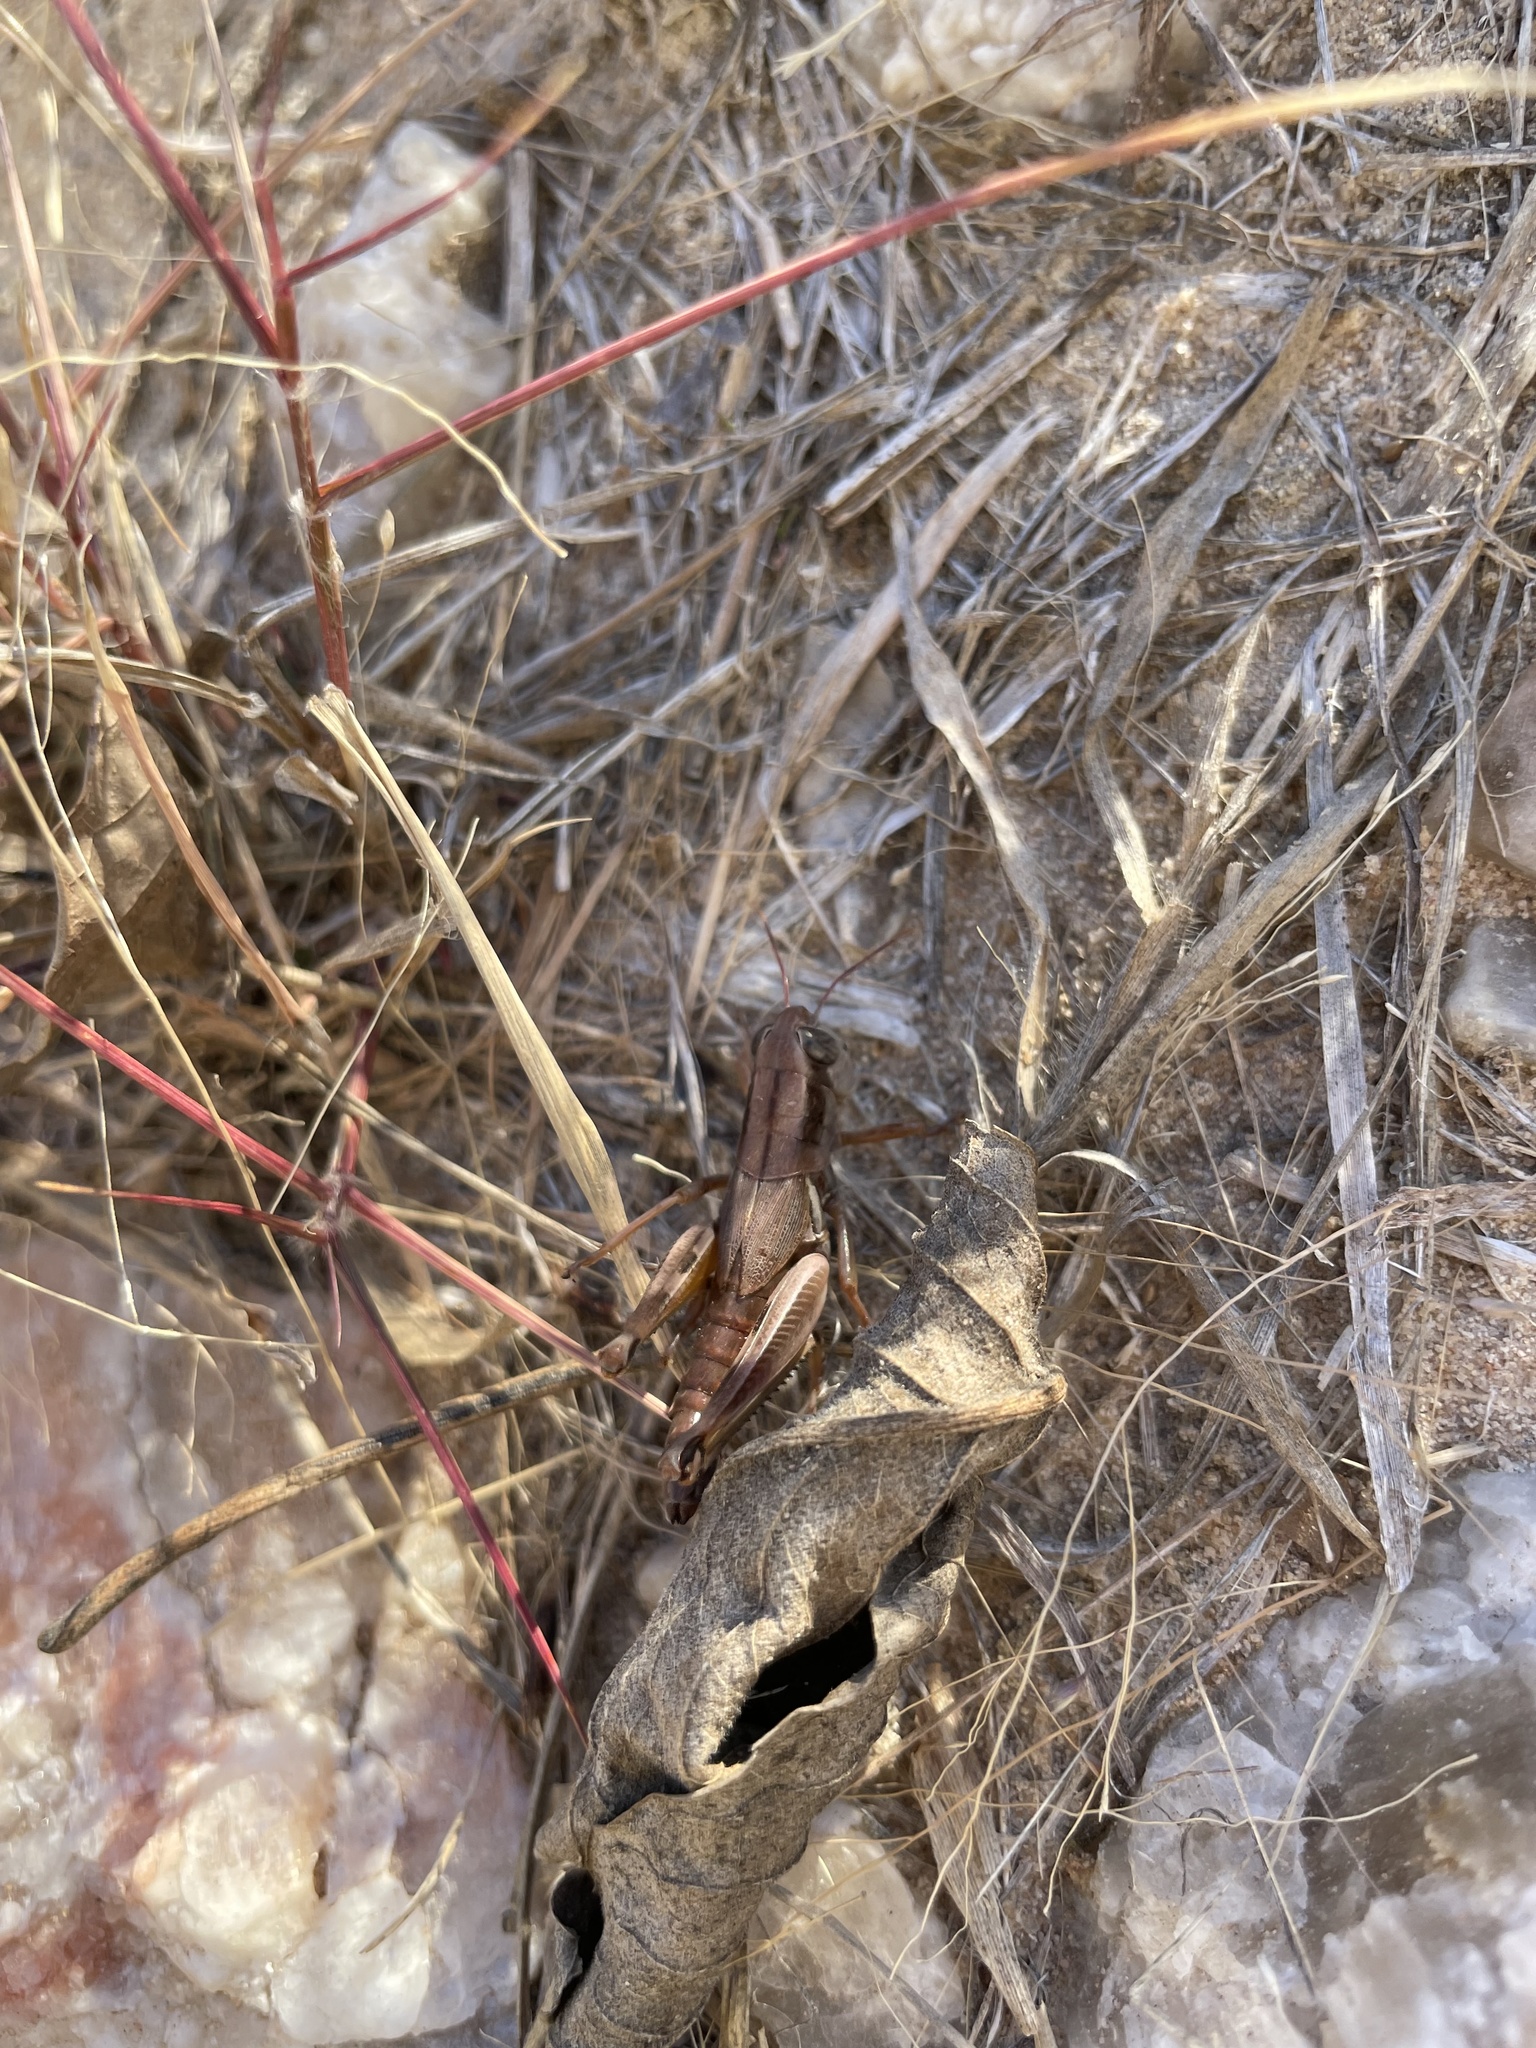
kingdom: Animalia
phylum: Arthropoda
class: Insecta
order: Orthoptera
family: Acrididae
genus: Phoetaliotes
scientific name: Phoetaliotes nebrascensis
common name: Large-headed grasshopper
